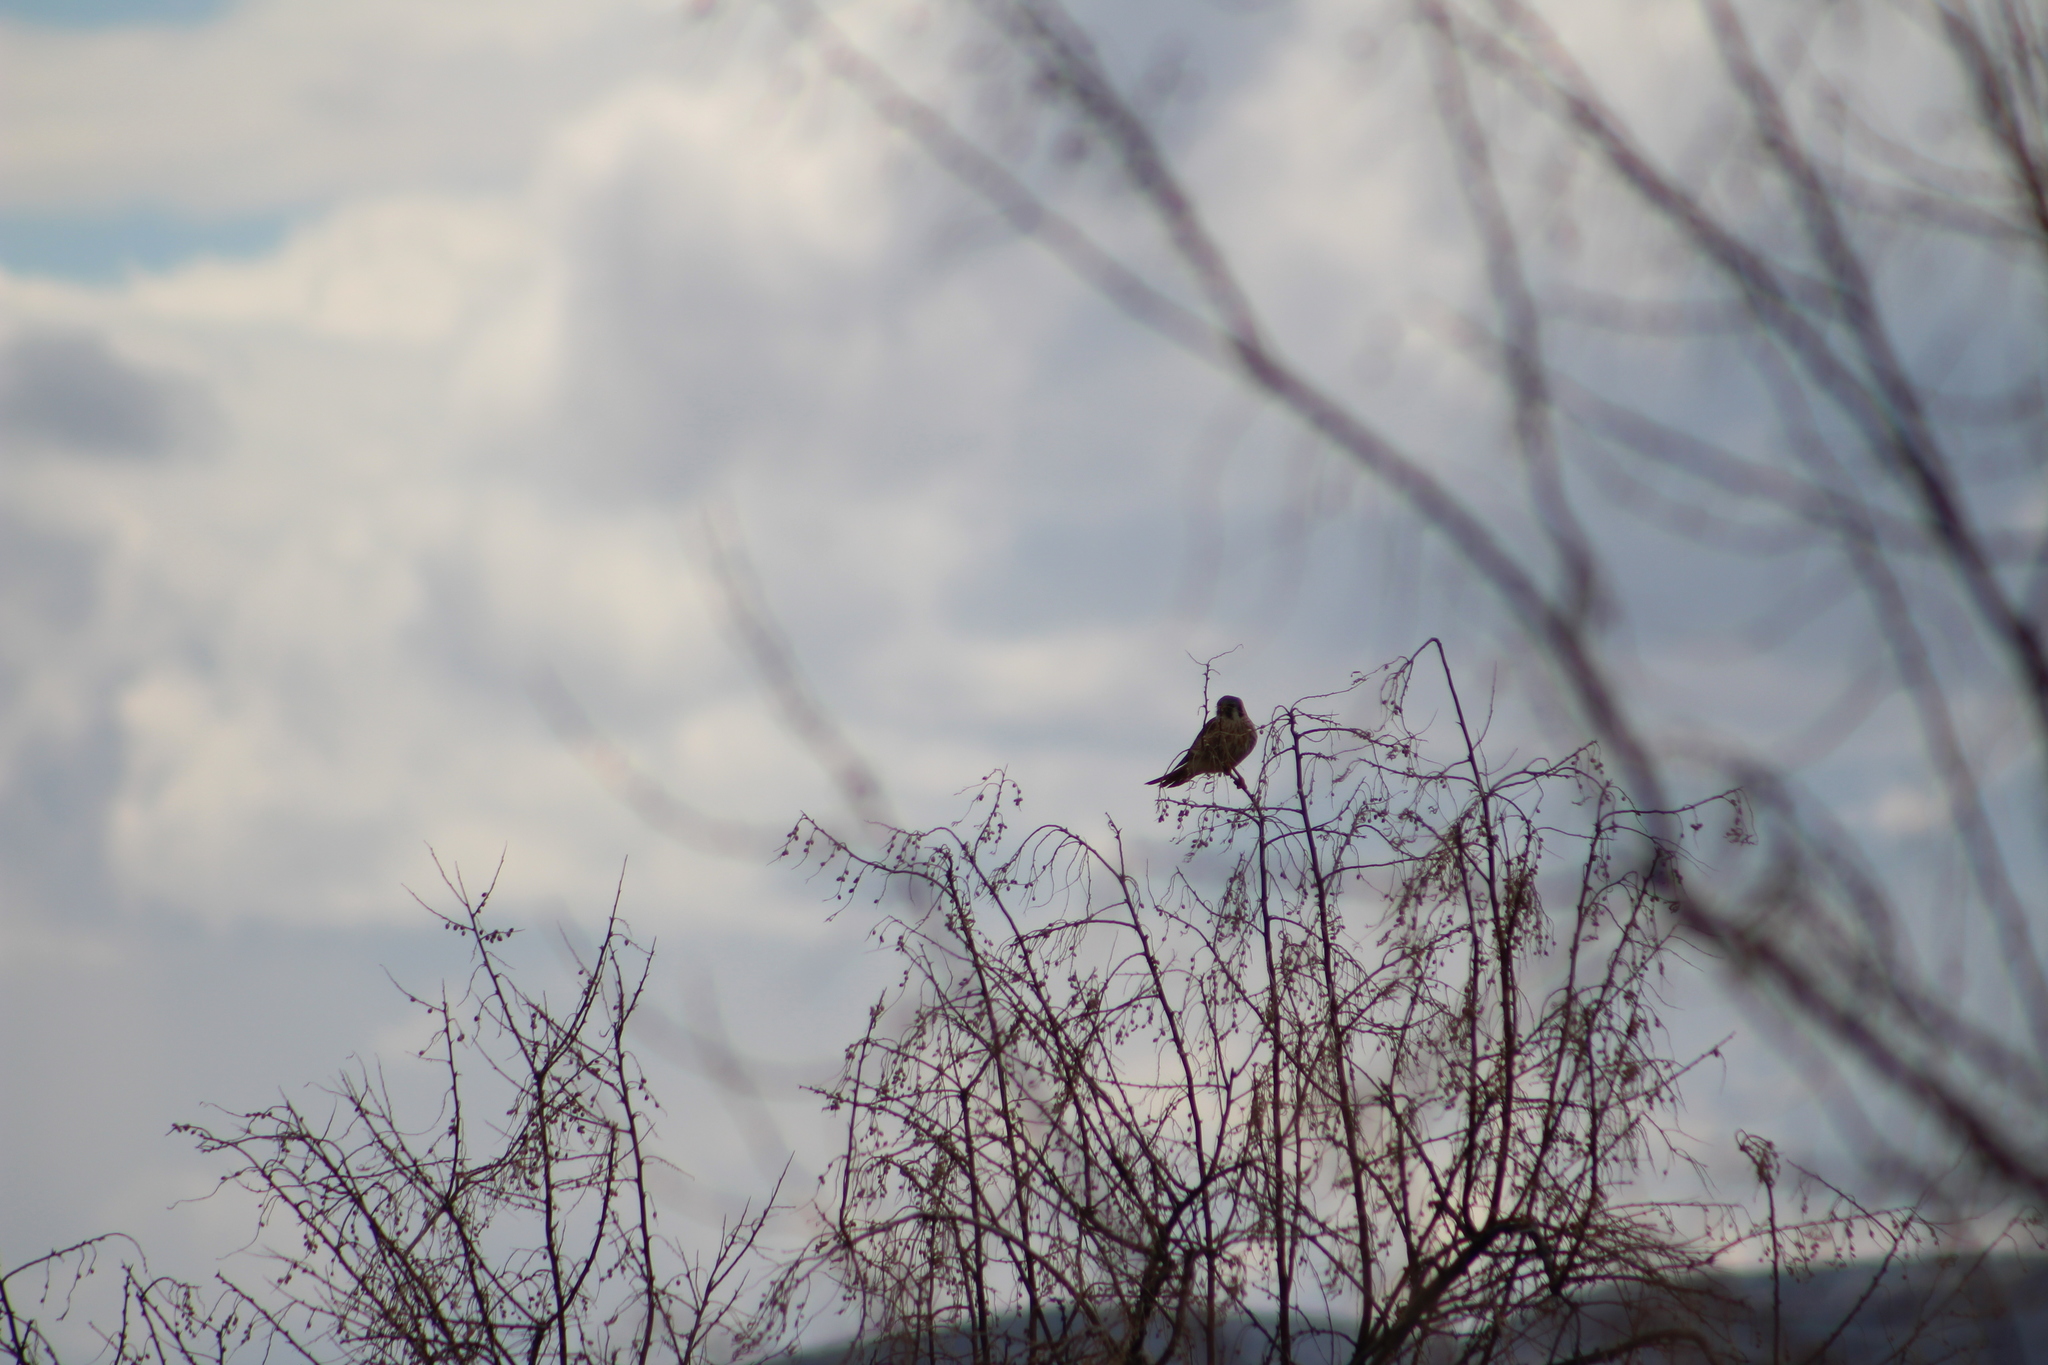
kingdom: Animalia
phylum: Chordata
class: Aves
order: Falconiformes
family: Falconidae
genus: Falco
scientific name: Falco sparverius
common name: American kestrel
